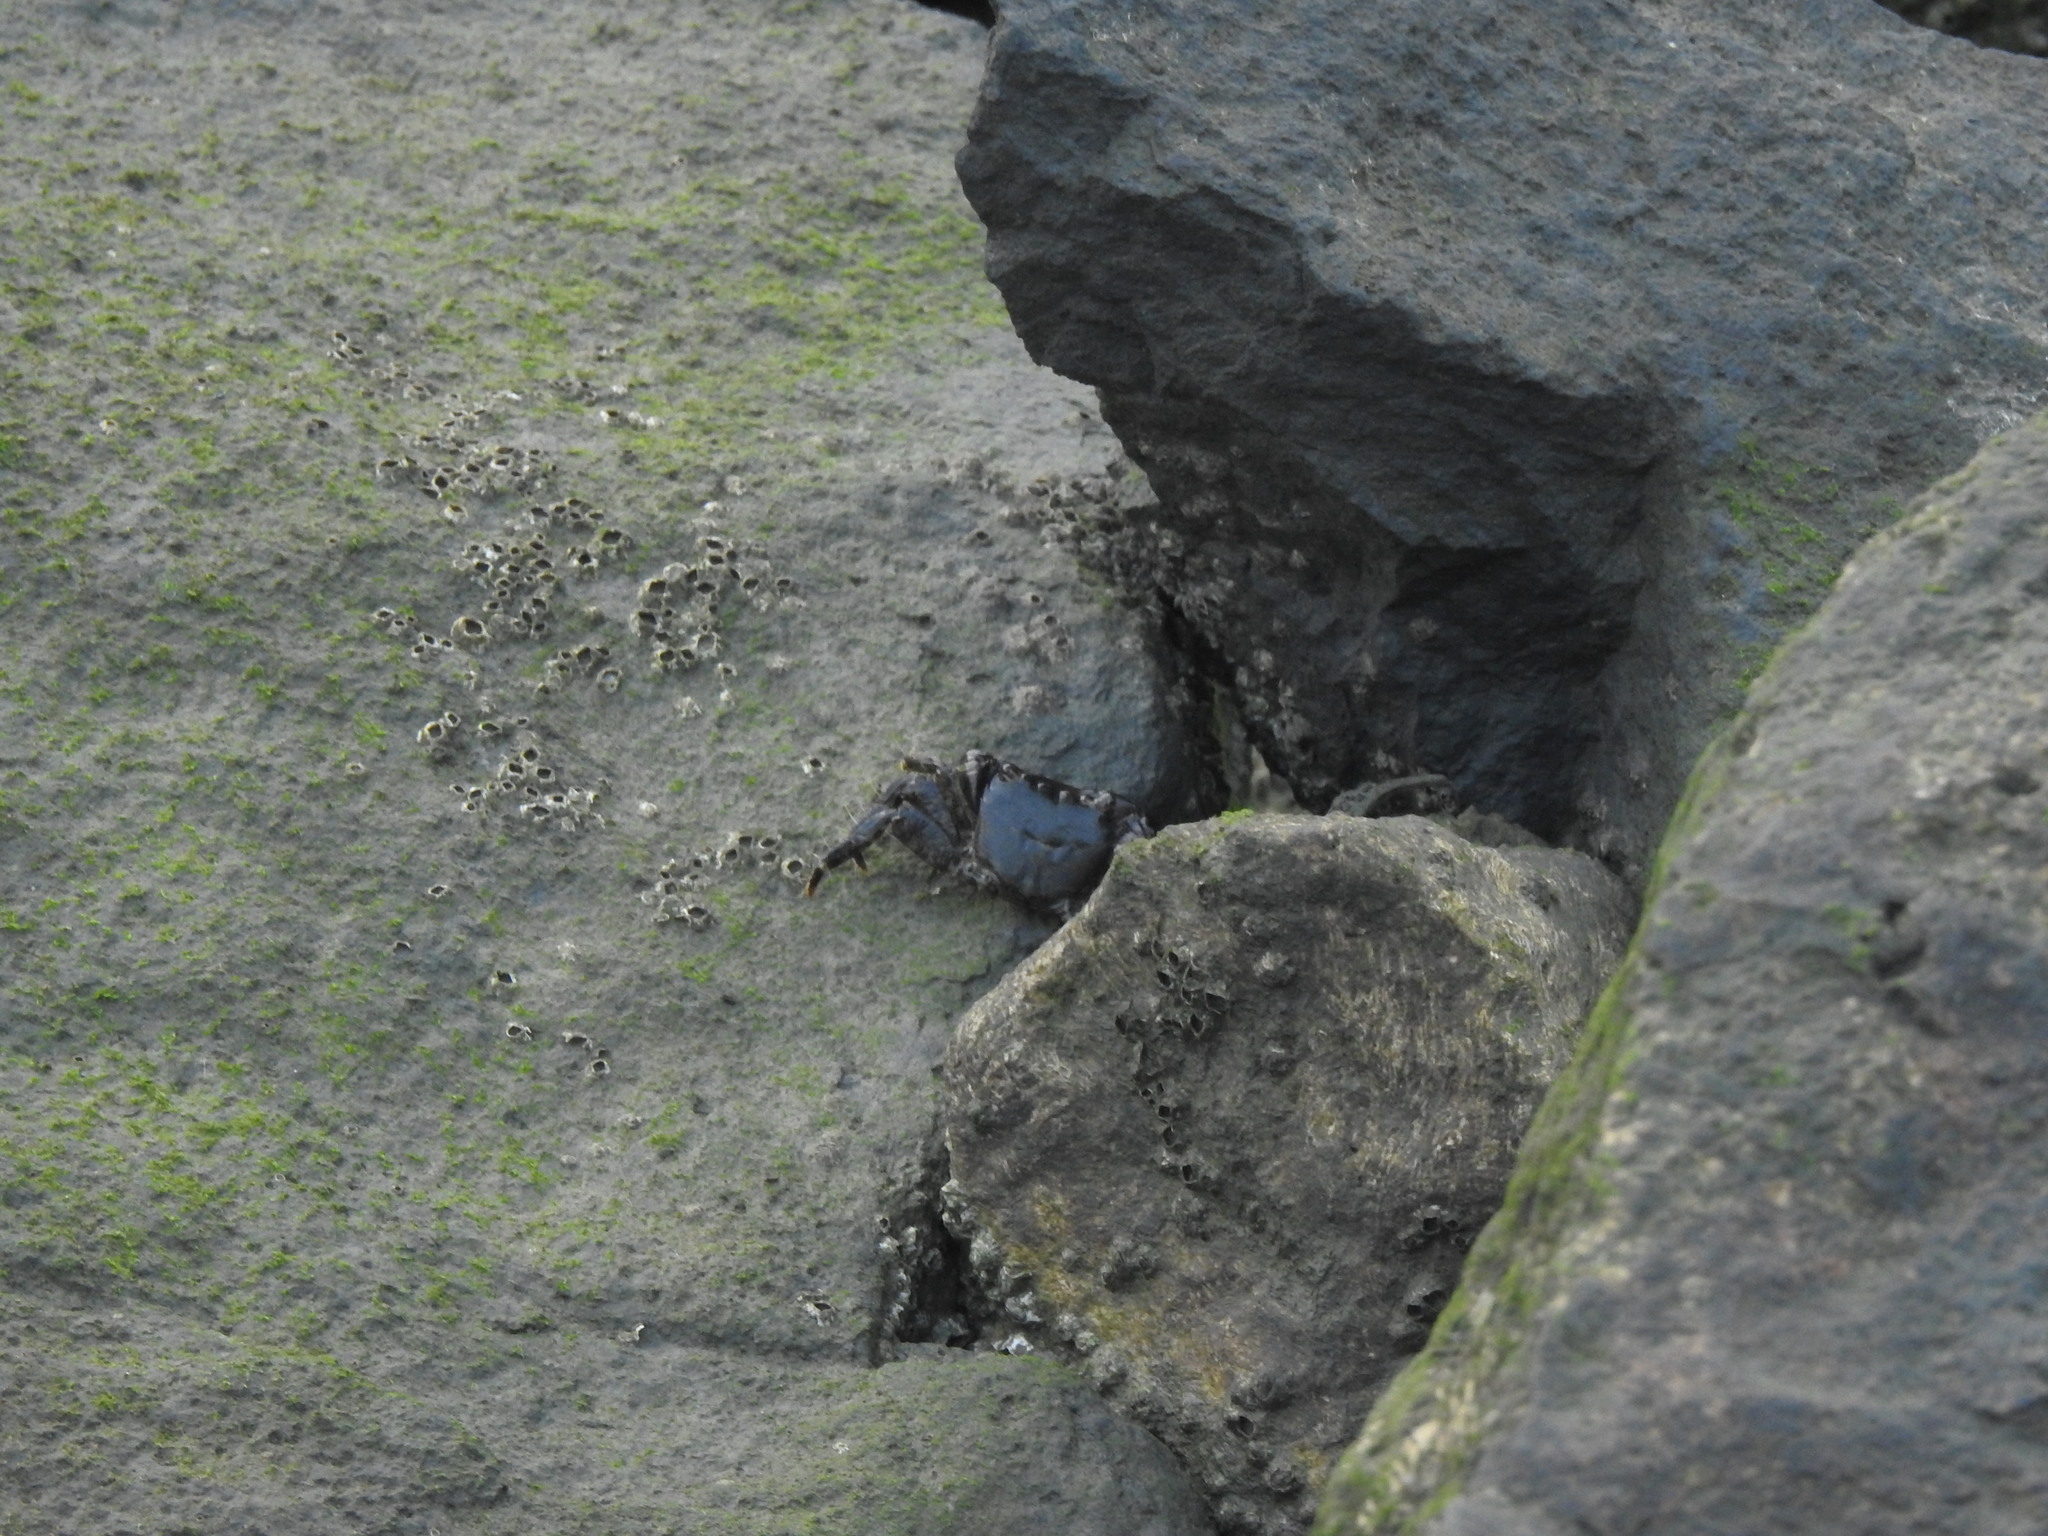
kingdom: Animalia
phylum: Arthropoda
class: Malacostraca
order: Decapoda
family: Grapsidae
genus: Pachygrapsus
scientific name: Pachygrapsus marmoratus
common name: Marbled rock crab
